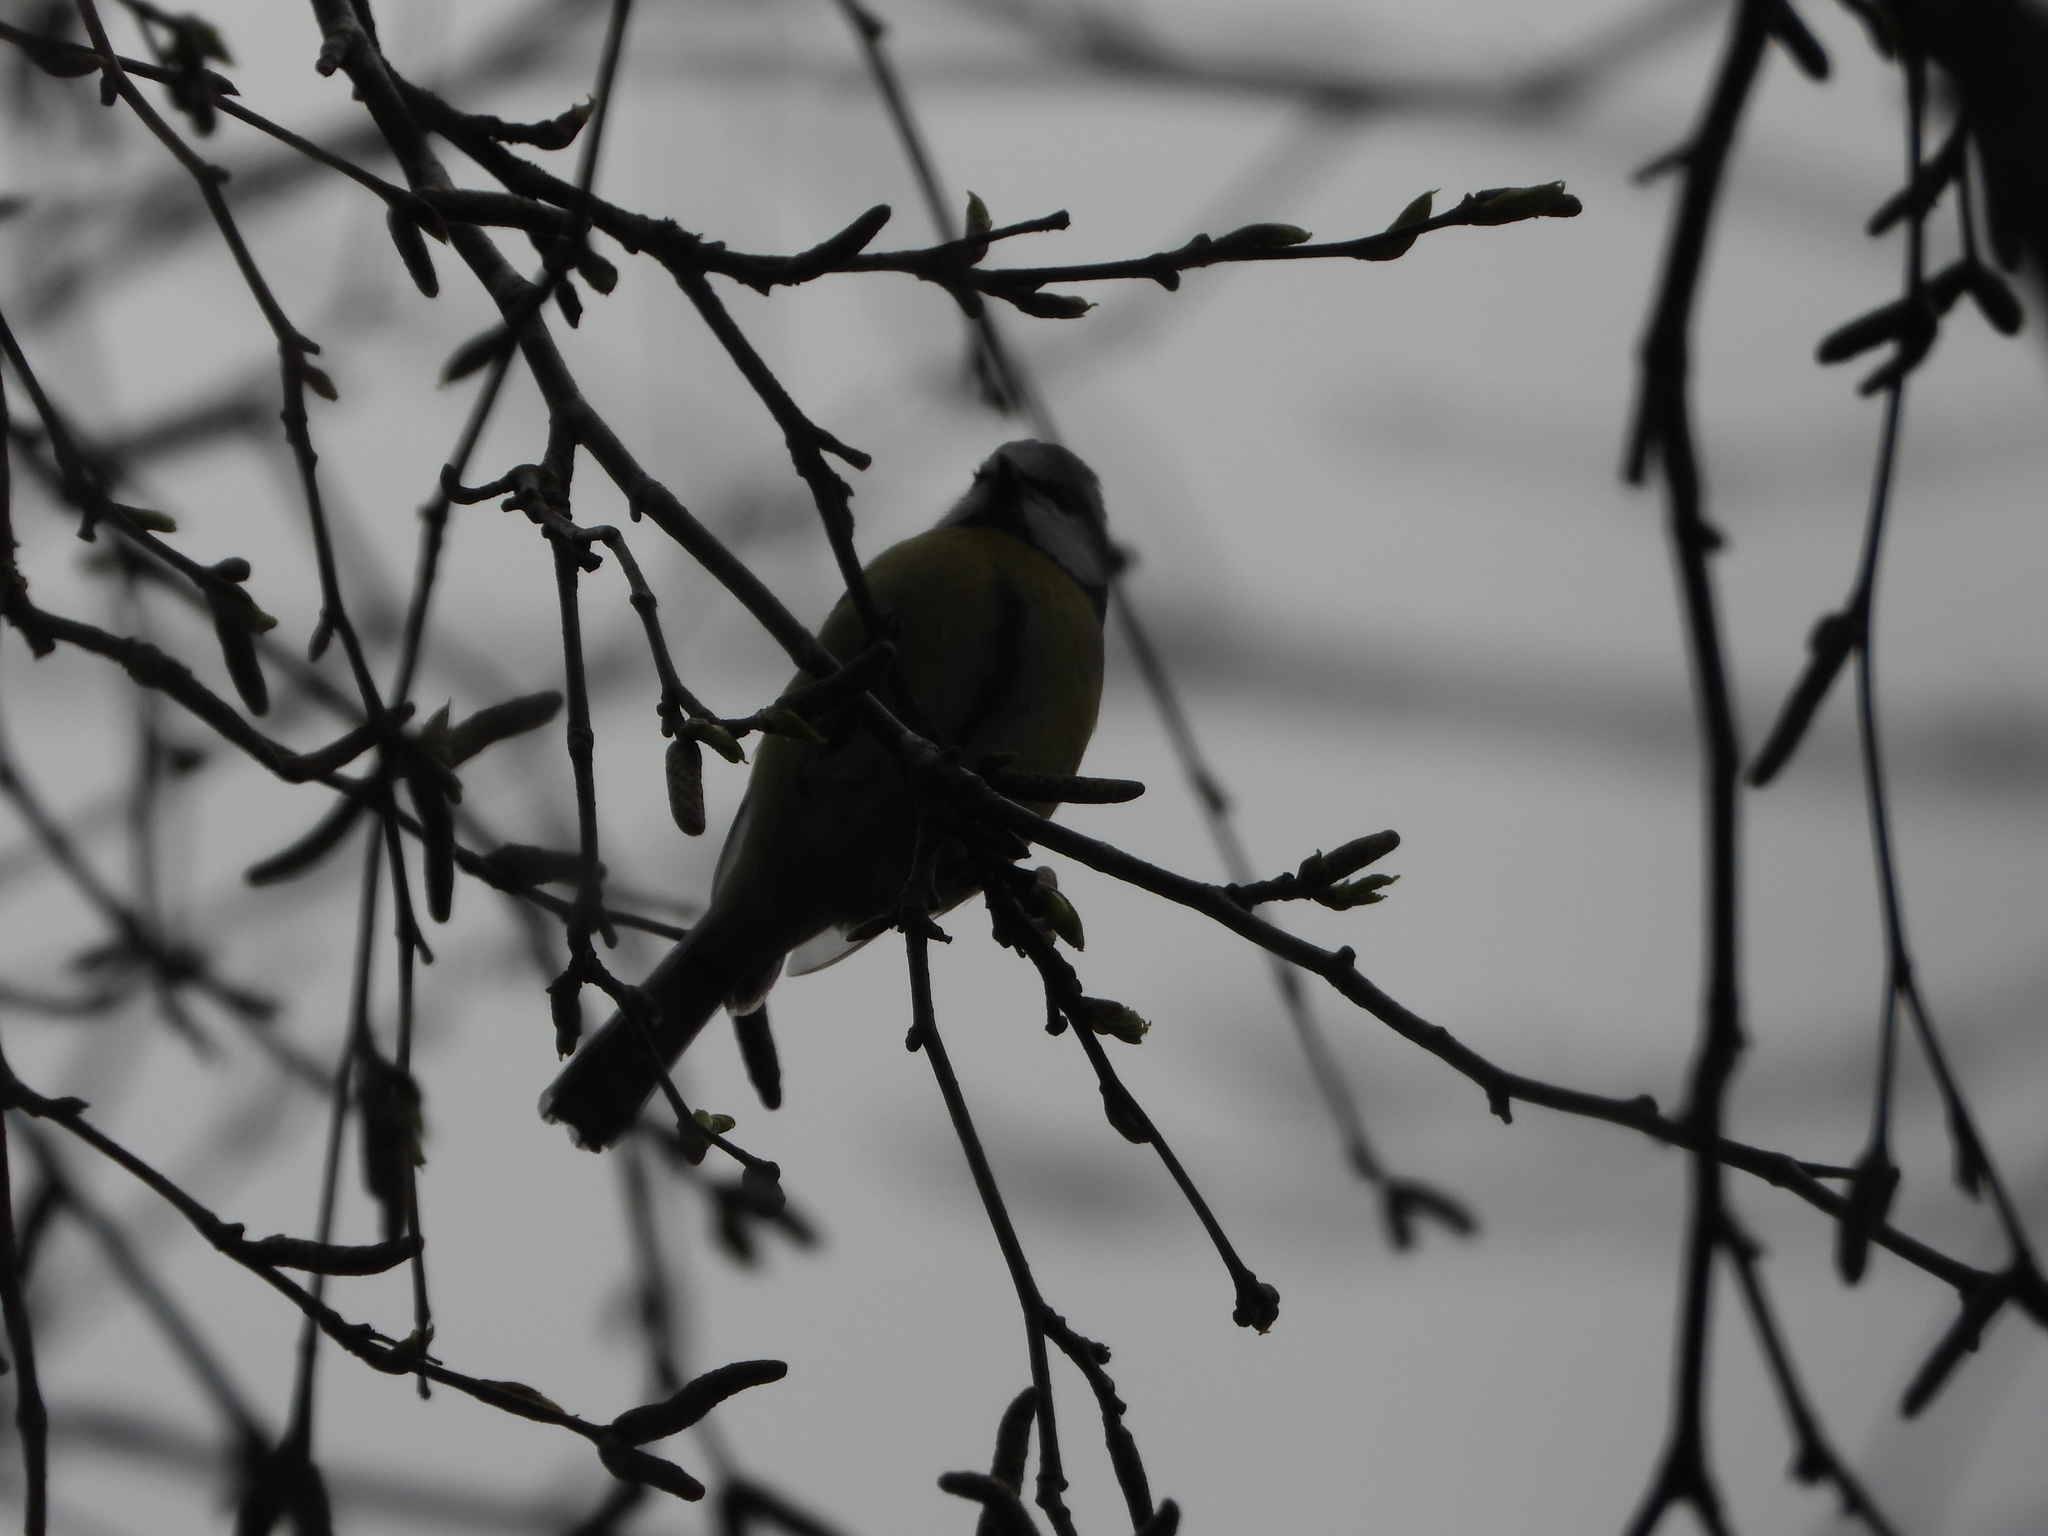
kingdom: Animalia
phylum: Chordata
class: Aves
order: Passeriformes
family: Paridae
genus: Cyanistes
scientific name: Cyanistes caeruleus
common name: Eurasian blue tit
